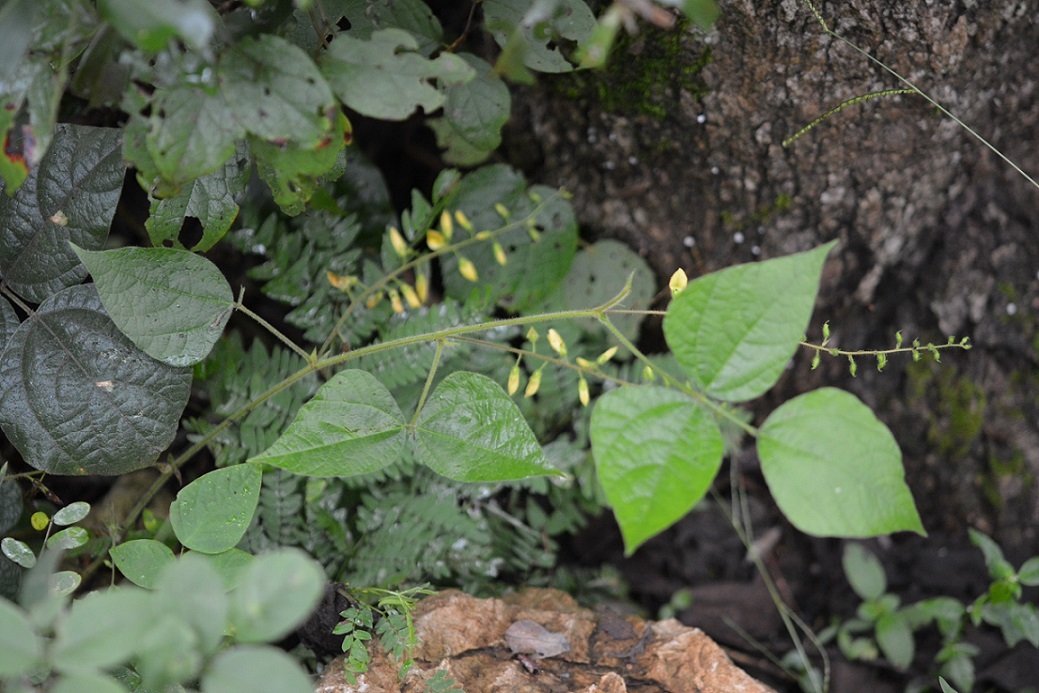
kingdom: Plantae
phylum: Tracheophyta
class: Magnoliopsida
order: Fabales
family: Fabaceae
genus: Rhynchosia
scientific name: Rhynchosia edulis
